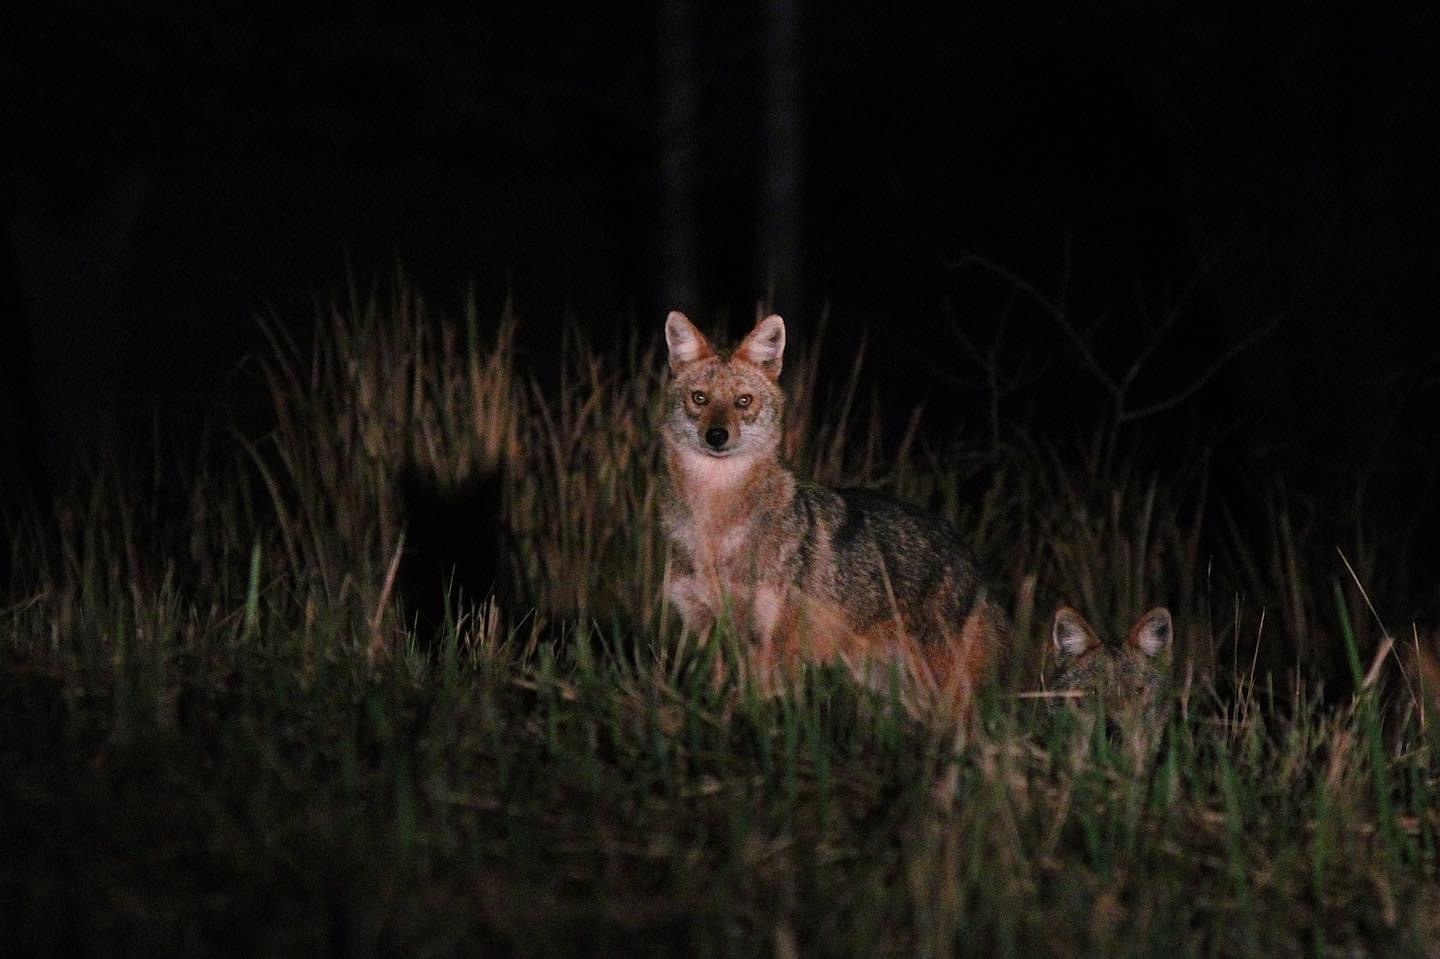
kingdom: Animalia
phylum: Chordata
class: Mammalia
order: Carnivora
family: Canidae
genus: Canis
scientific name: Canis aureus
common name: Golden jackal
